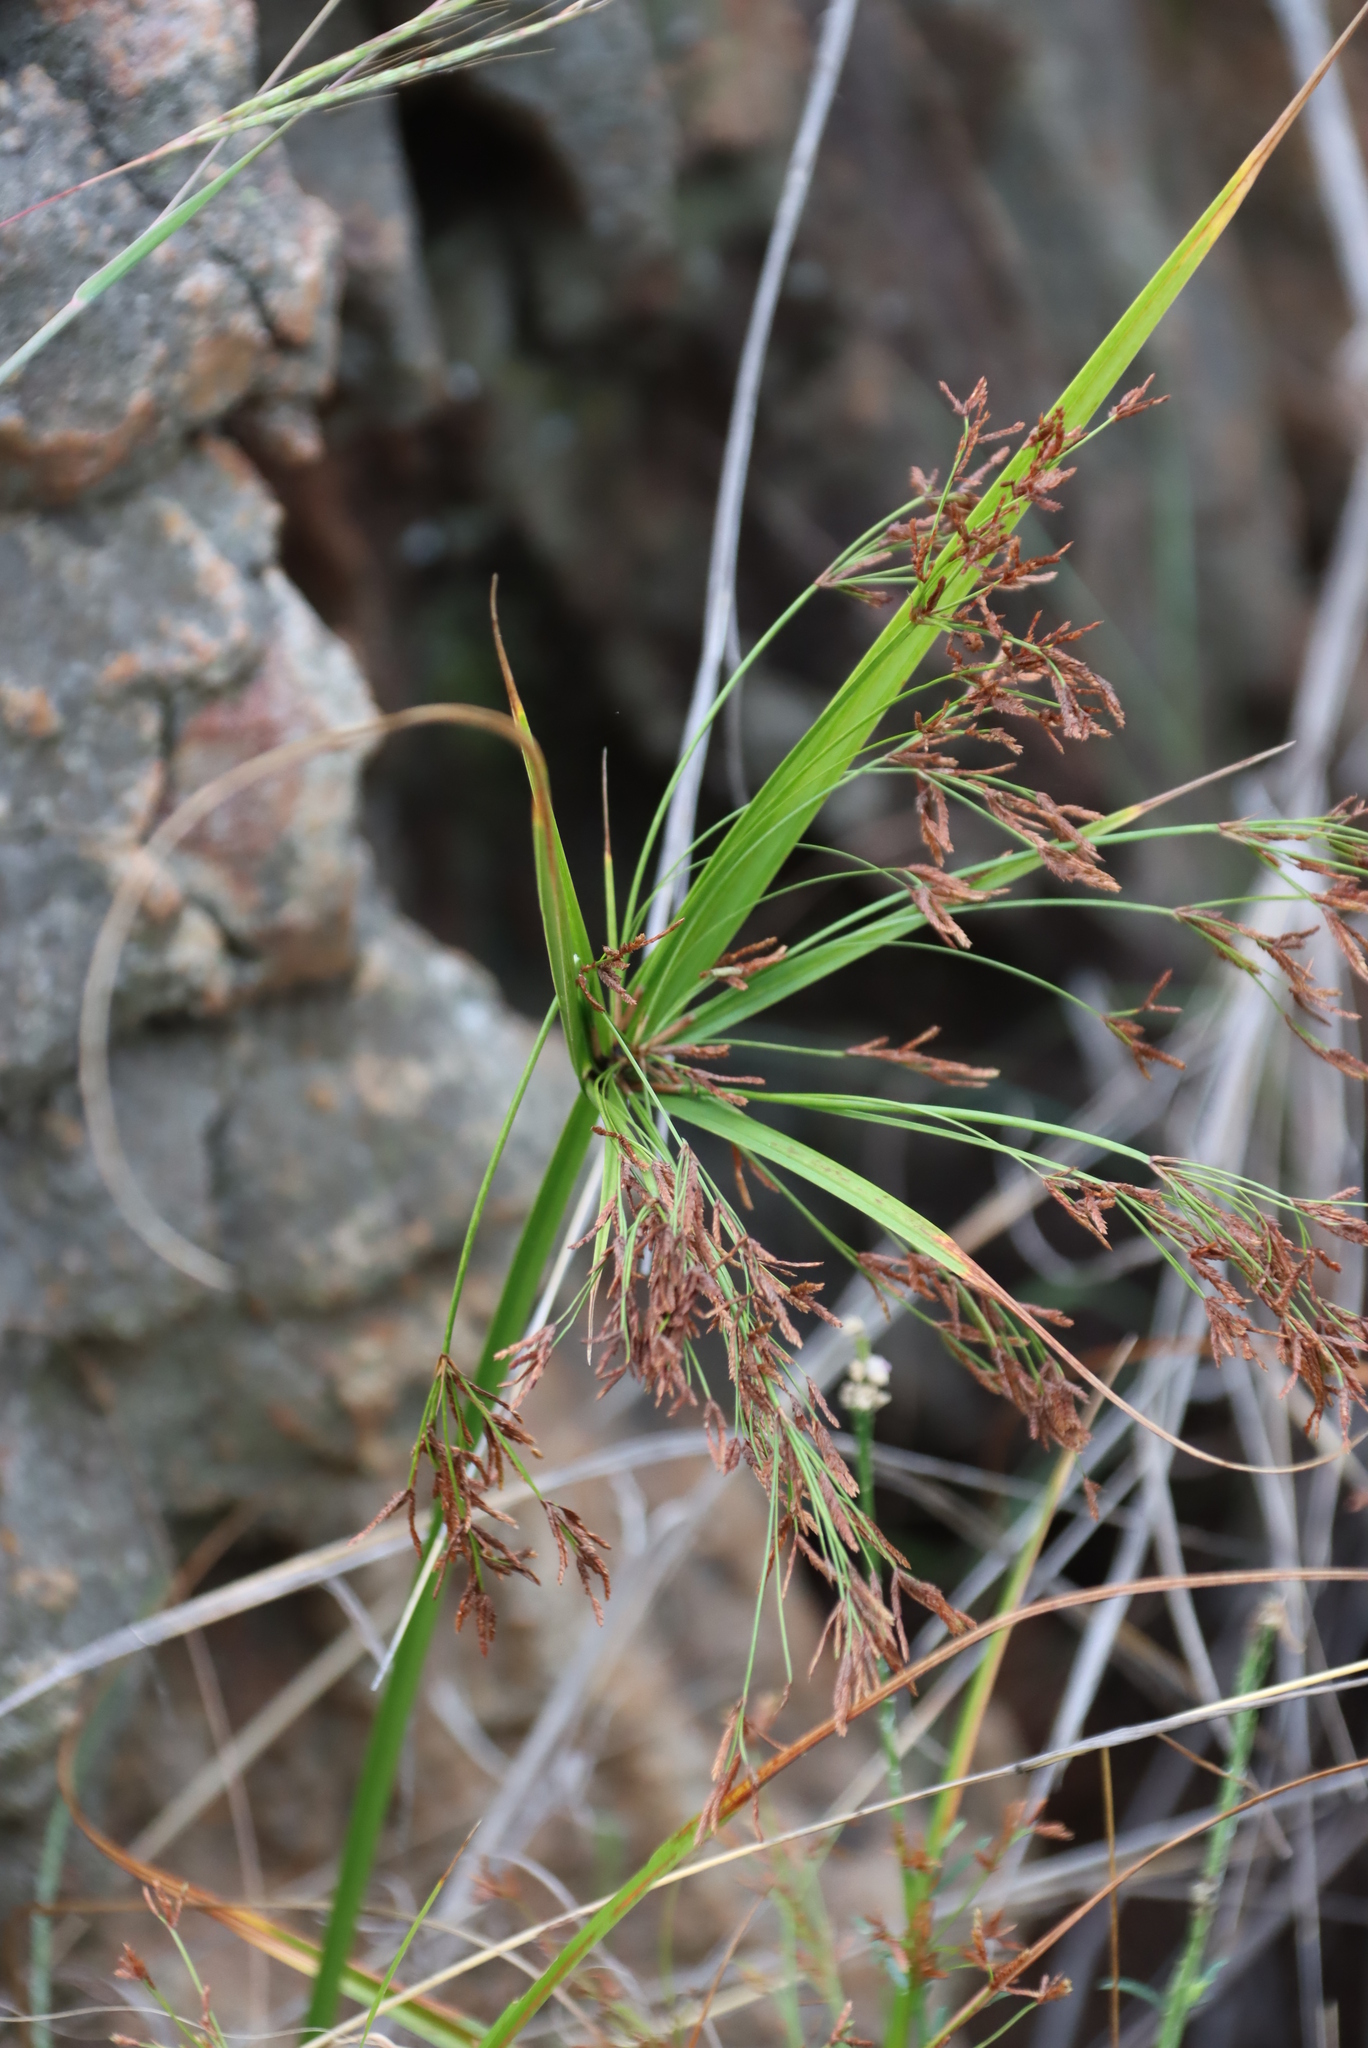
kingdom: Plantae
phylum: Tracheophyta
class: Liliopsida
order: Poales
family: Cyperaceae
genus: Cyperus
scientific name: Cyperus leptocladus
